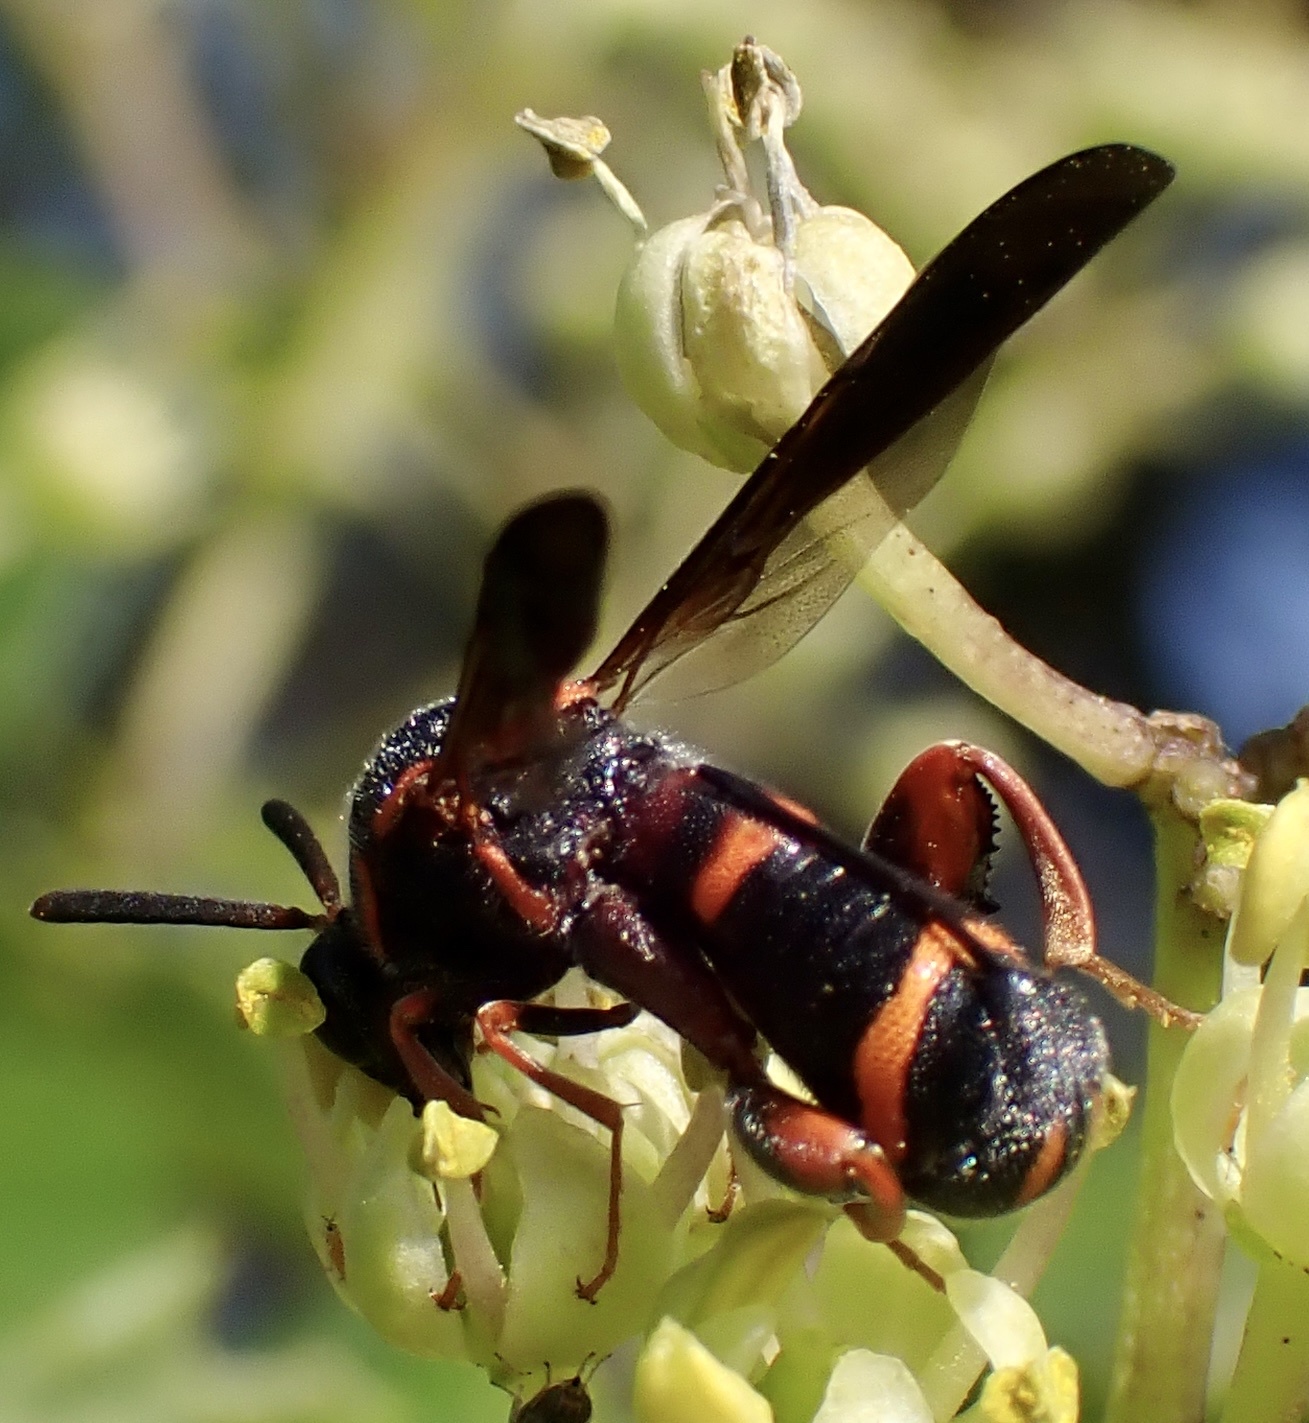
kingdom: Animalia
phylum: Arthropoda
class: Insecta
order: Hymenoptera
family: Leucospidae
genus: Leucospis
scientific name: Leucospis affinis
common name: Wasp
